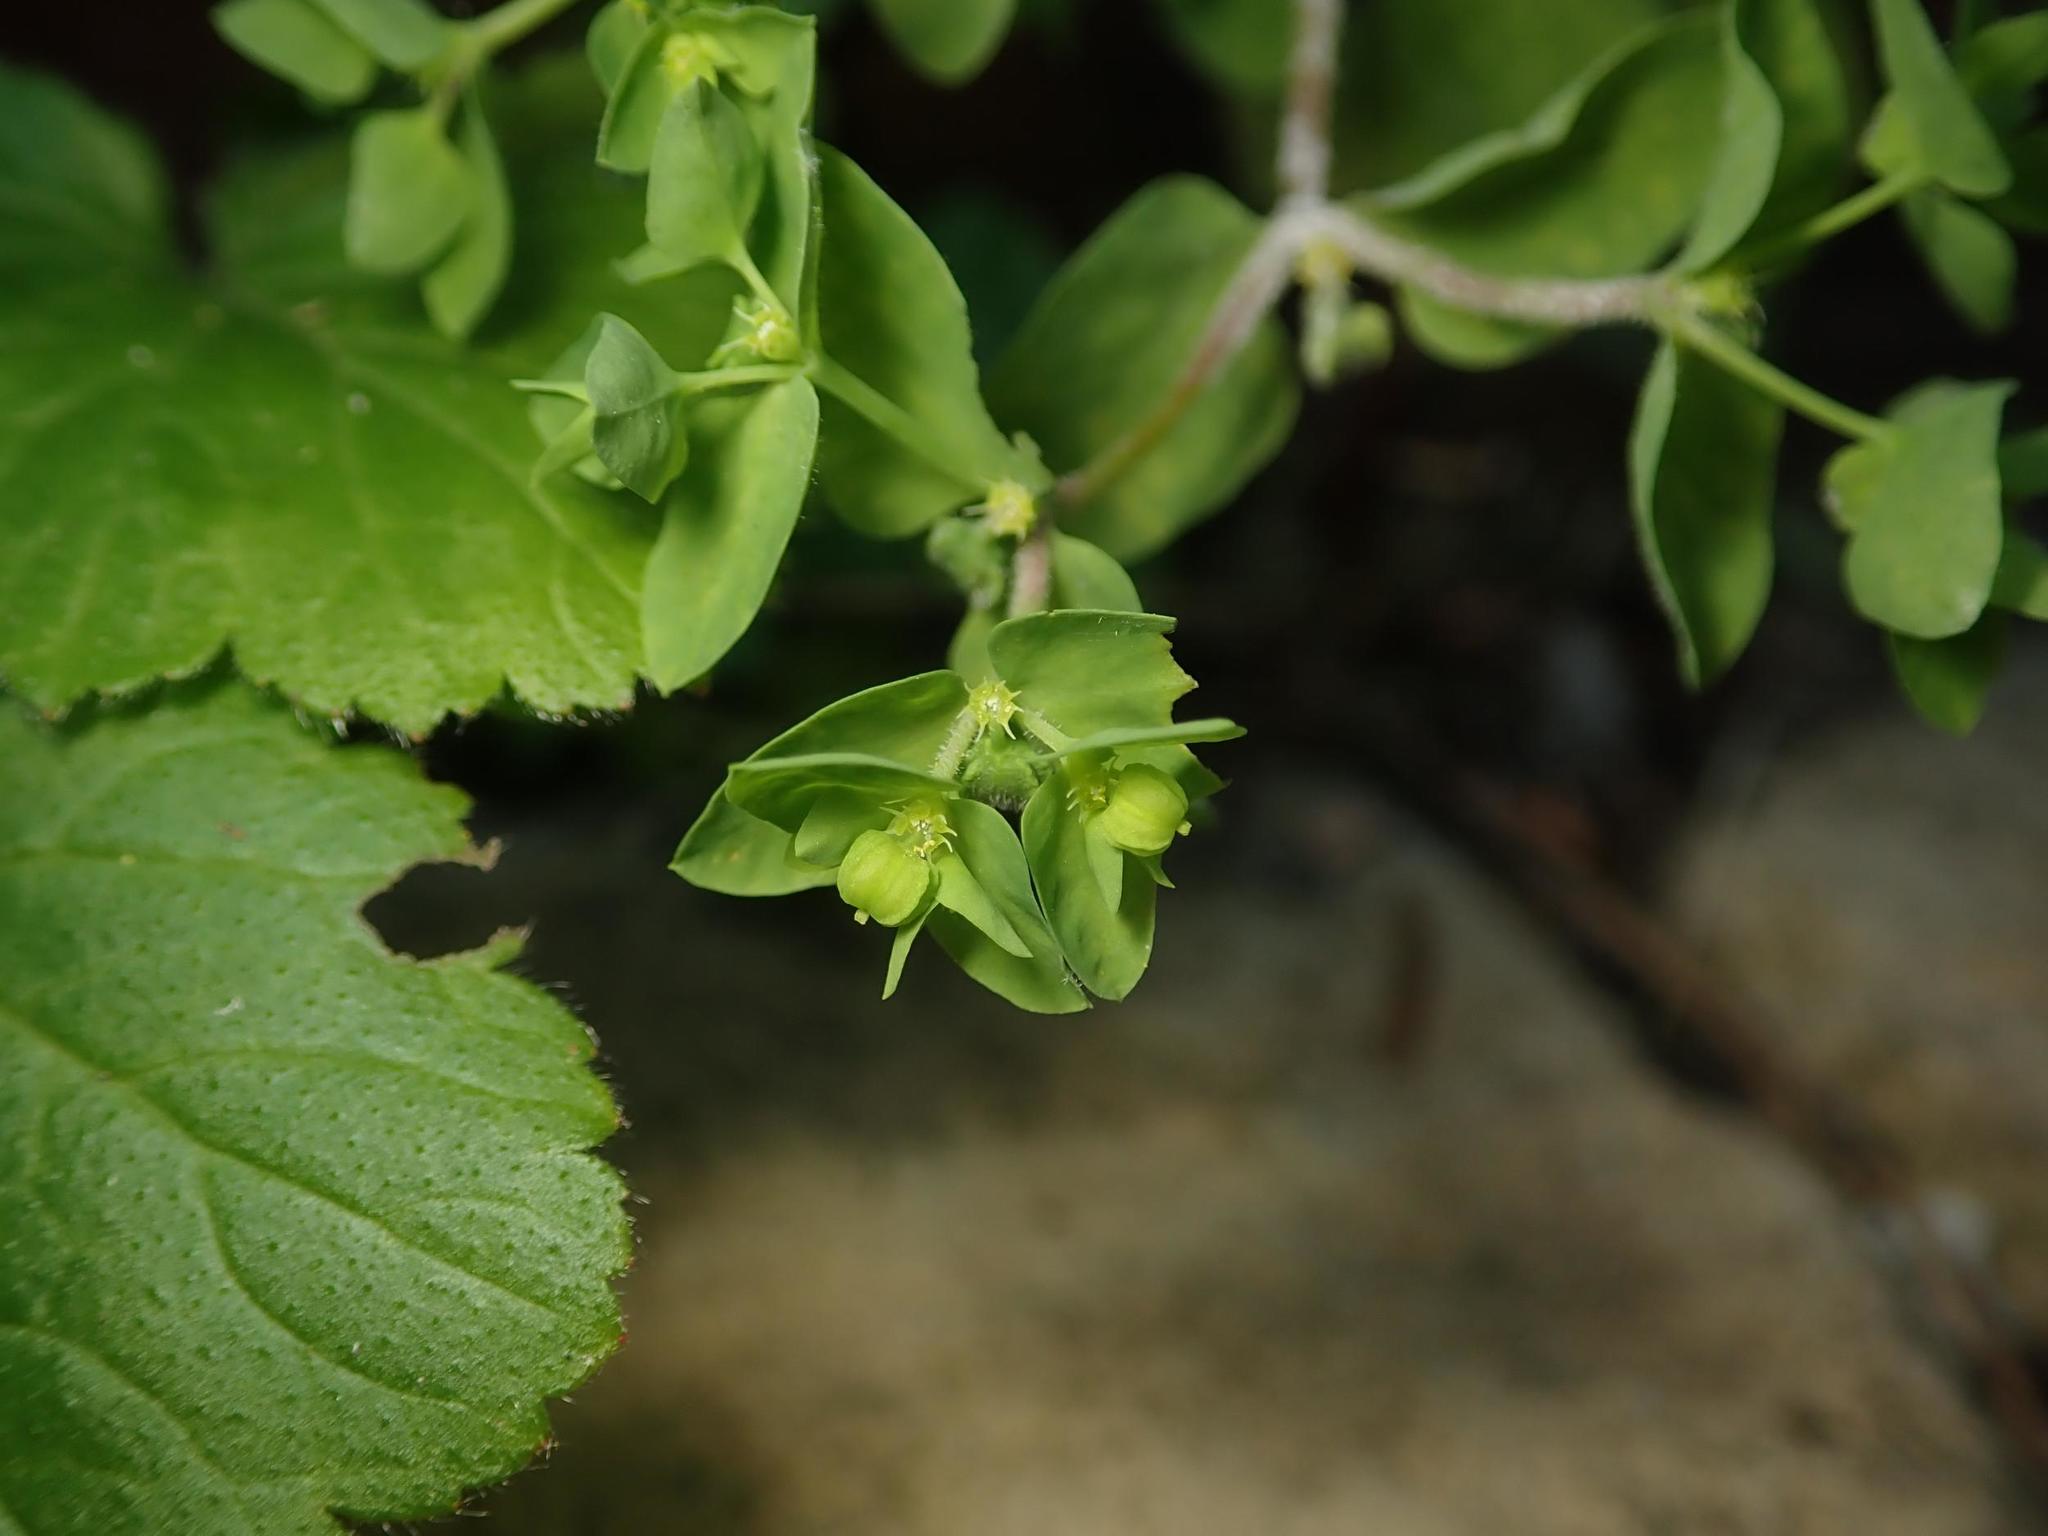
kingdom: Plantae
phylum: Tracheophyta
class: Magnoliopsida
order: Malpighiales
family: Euphorbiaceae
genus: Euphorbia
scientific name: Euphorbia peplus
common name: Petty spurge
